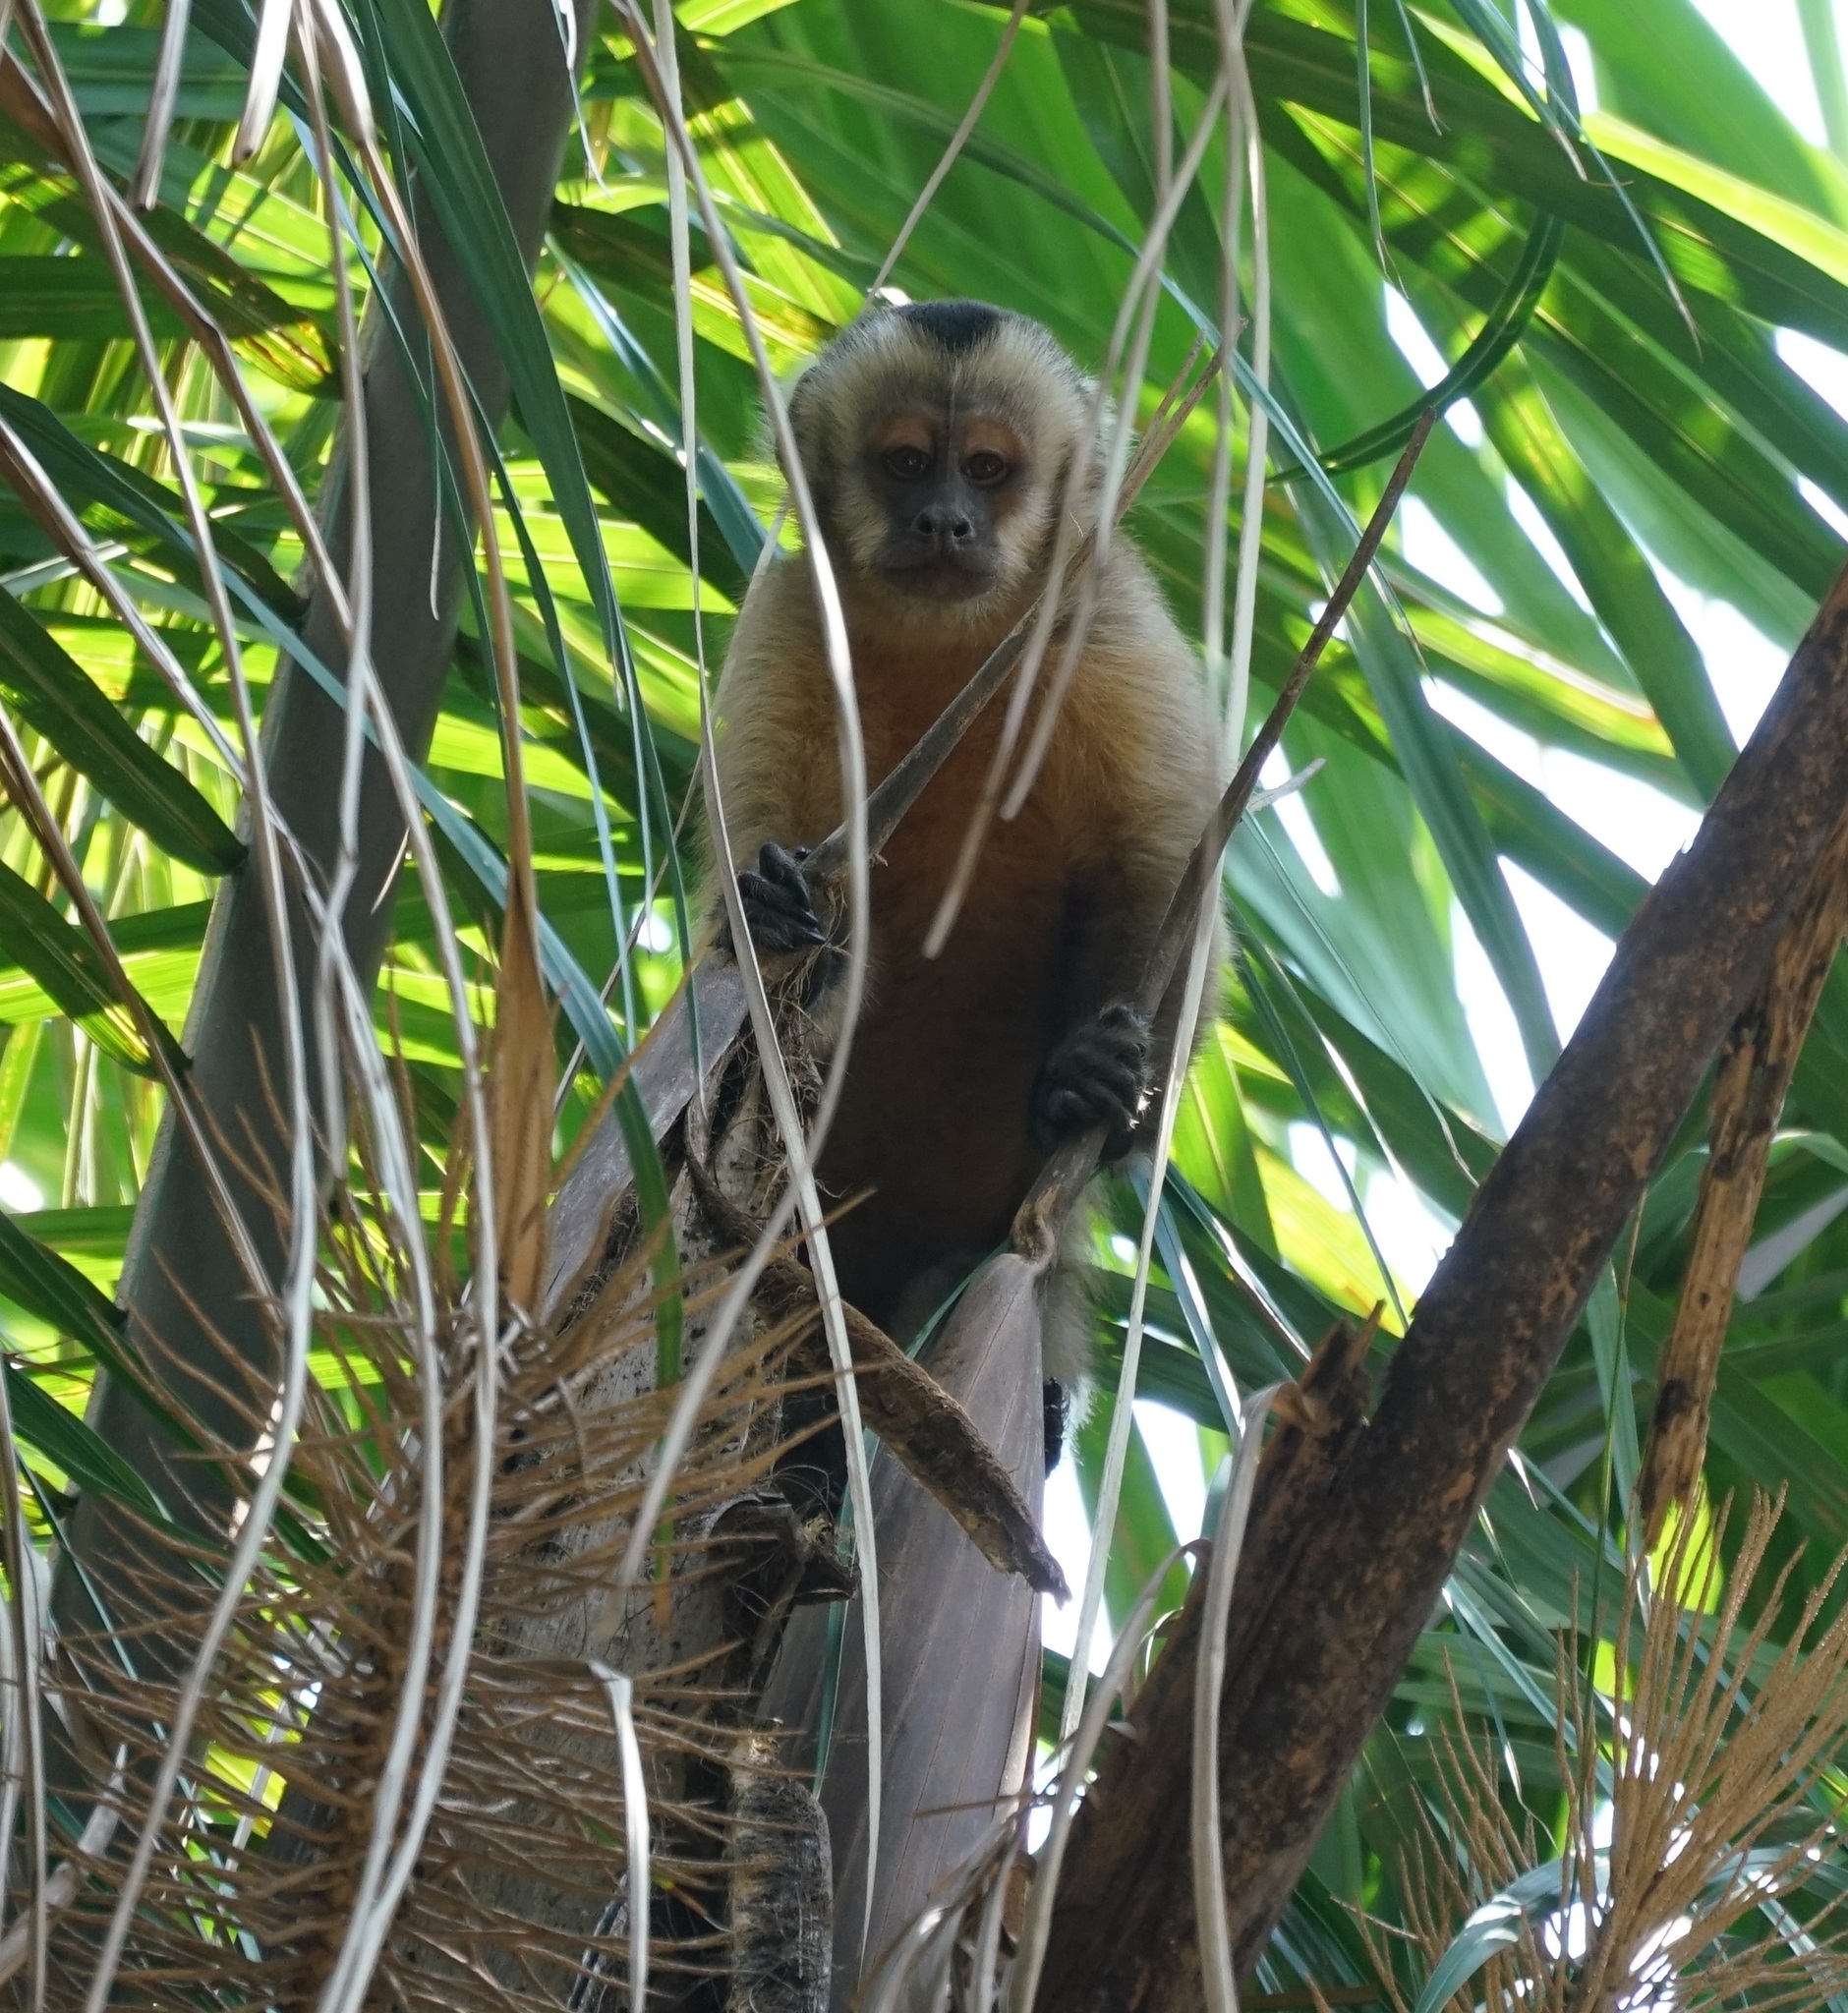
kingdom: Animalia
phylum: Chordata
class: Mammalia
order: Primates
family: Cebidae
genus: Sapajus
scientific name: Sapajus apella
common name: Tufted capuchin
